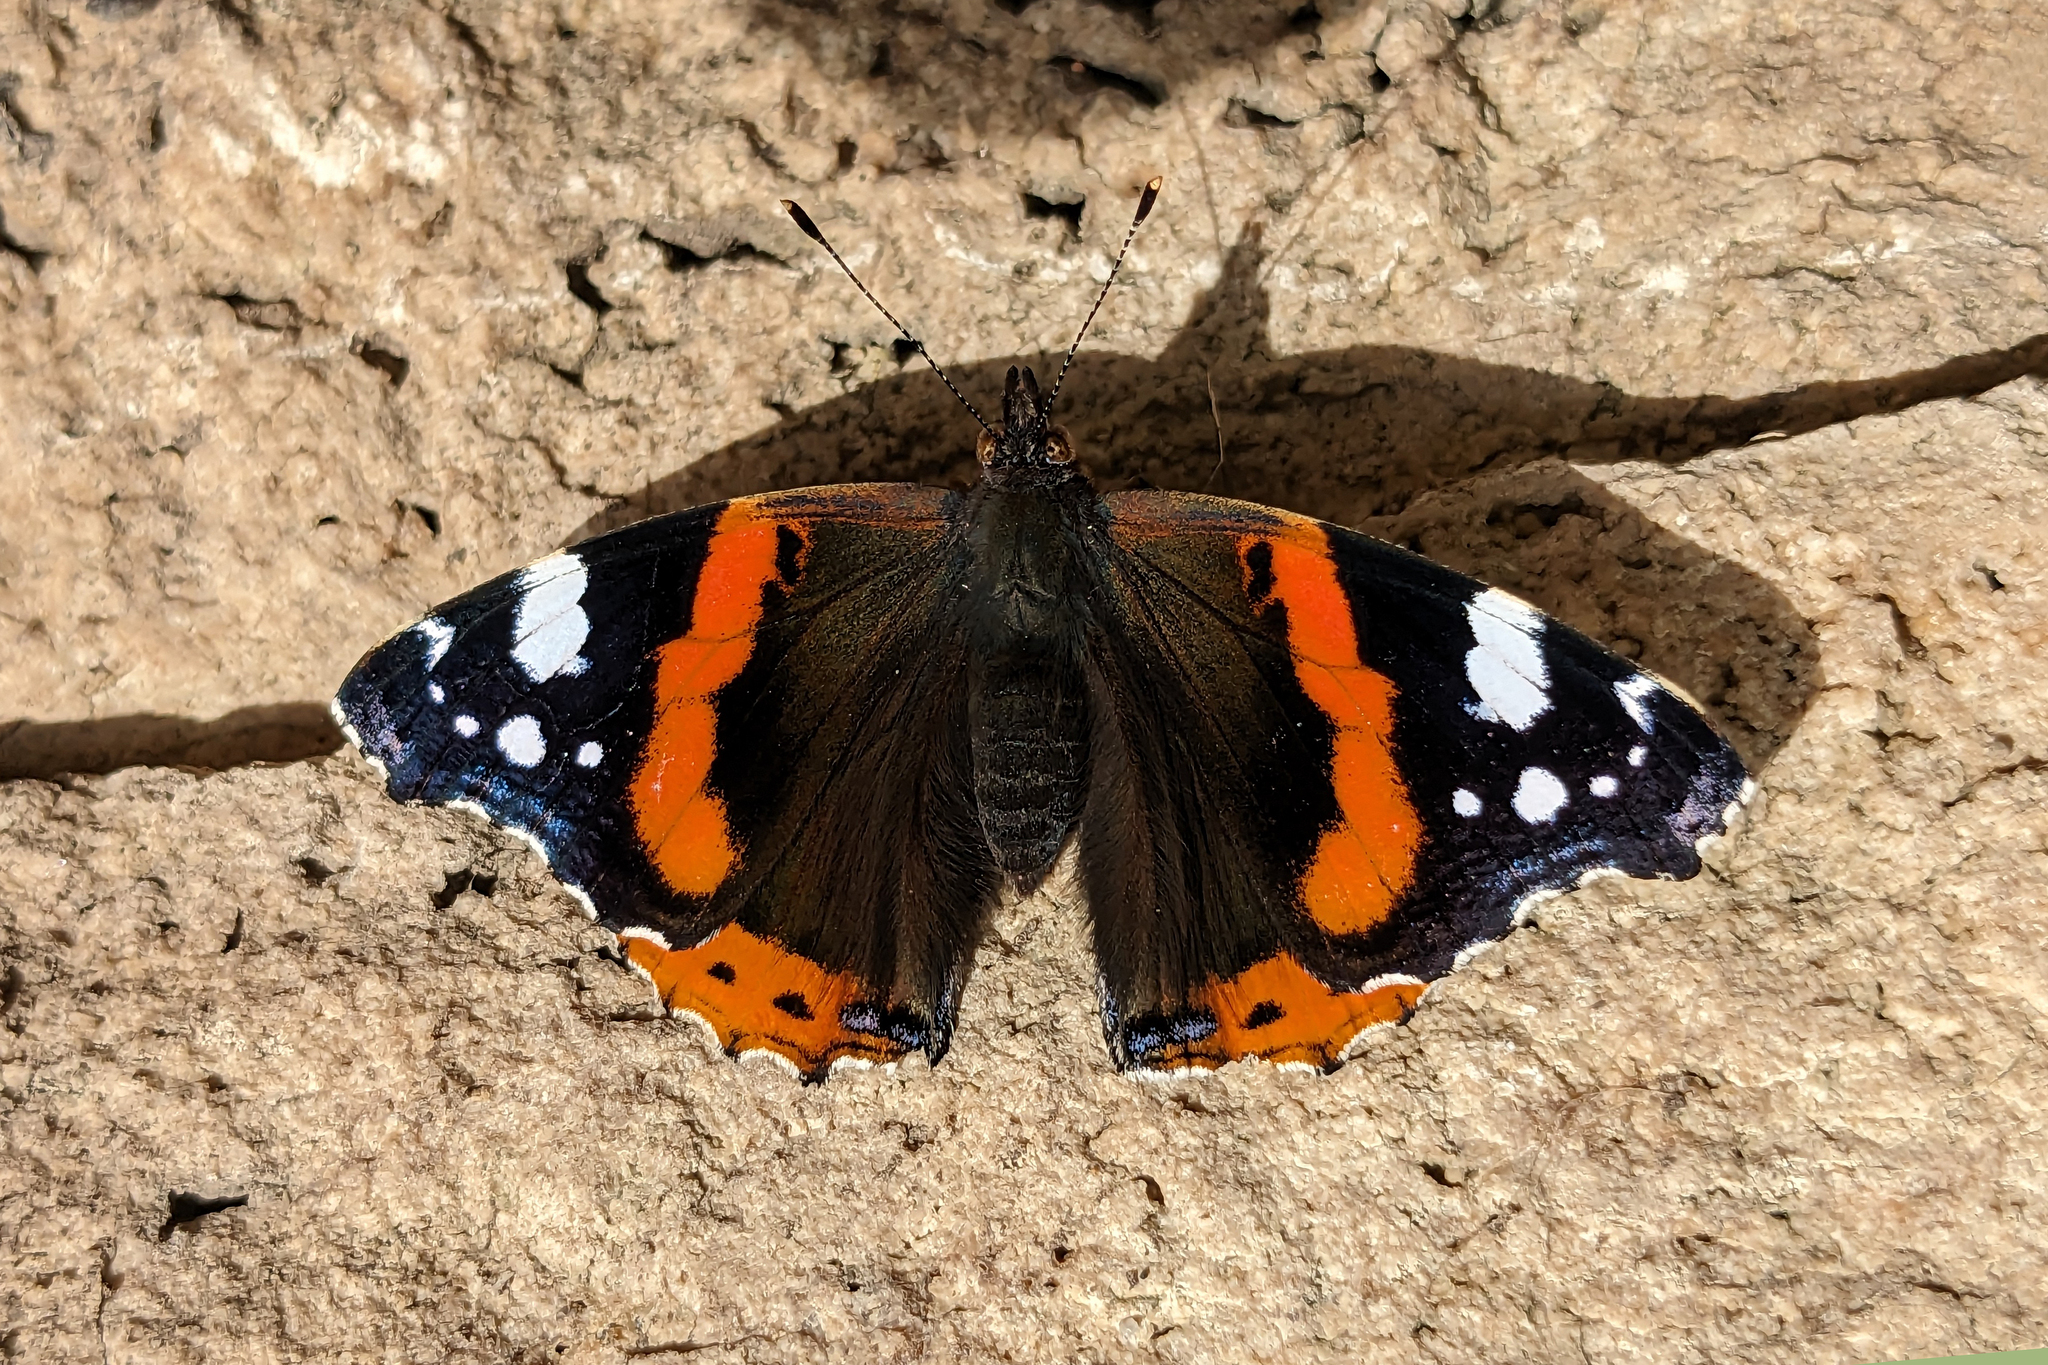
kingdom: Animalia
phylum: Arthropoda
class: Insecta
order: Lepidoptera
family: Nymphalidae
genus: Vanessa
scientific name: Vanessa atalanta
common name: Red admiral
